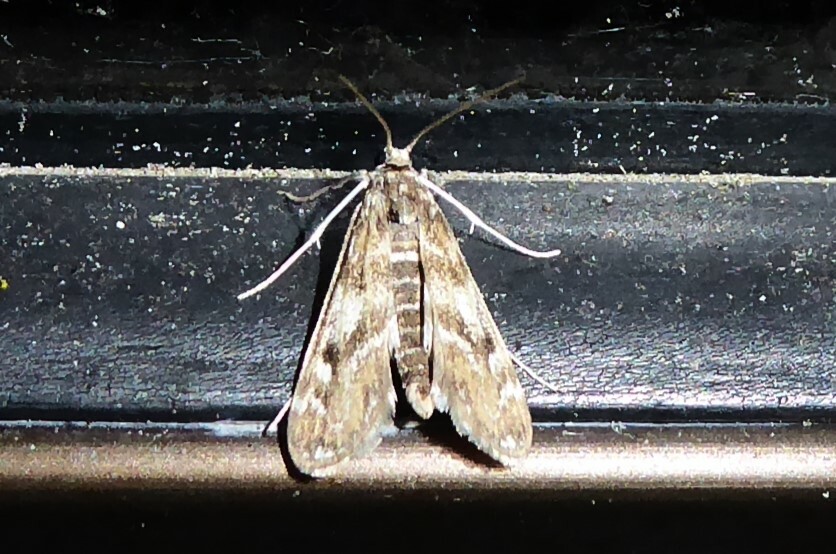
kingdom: Animalia
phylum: Arthropoda
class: Insecta
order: Lepidoptera
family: Crambidae
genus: Hygraula
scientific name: Hygraula nitens
